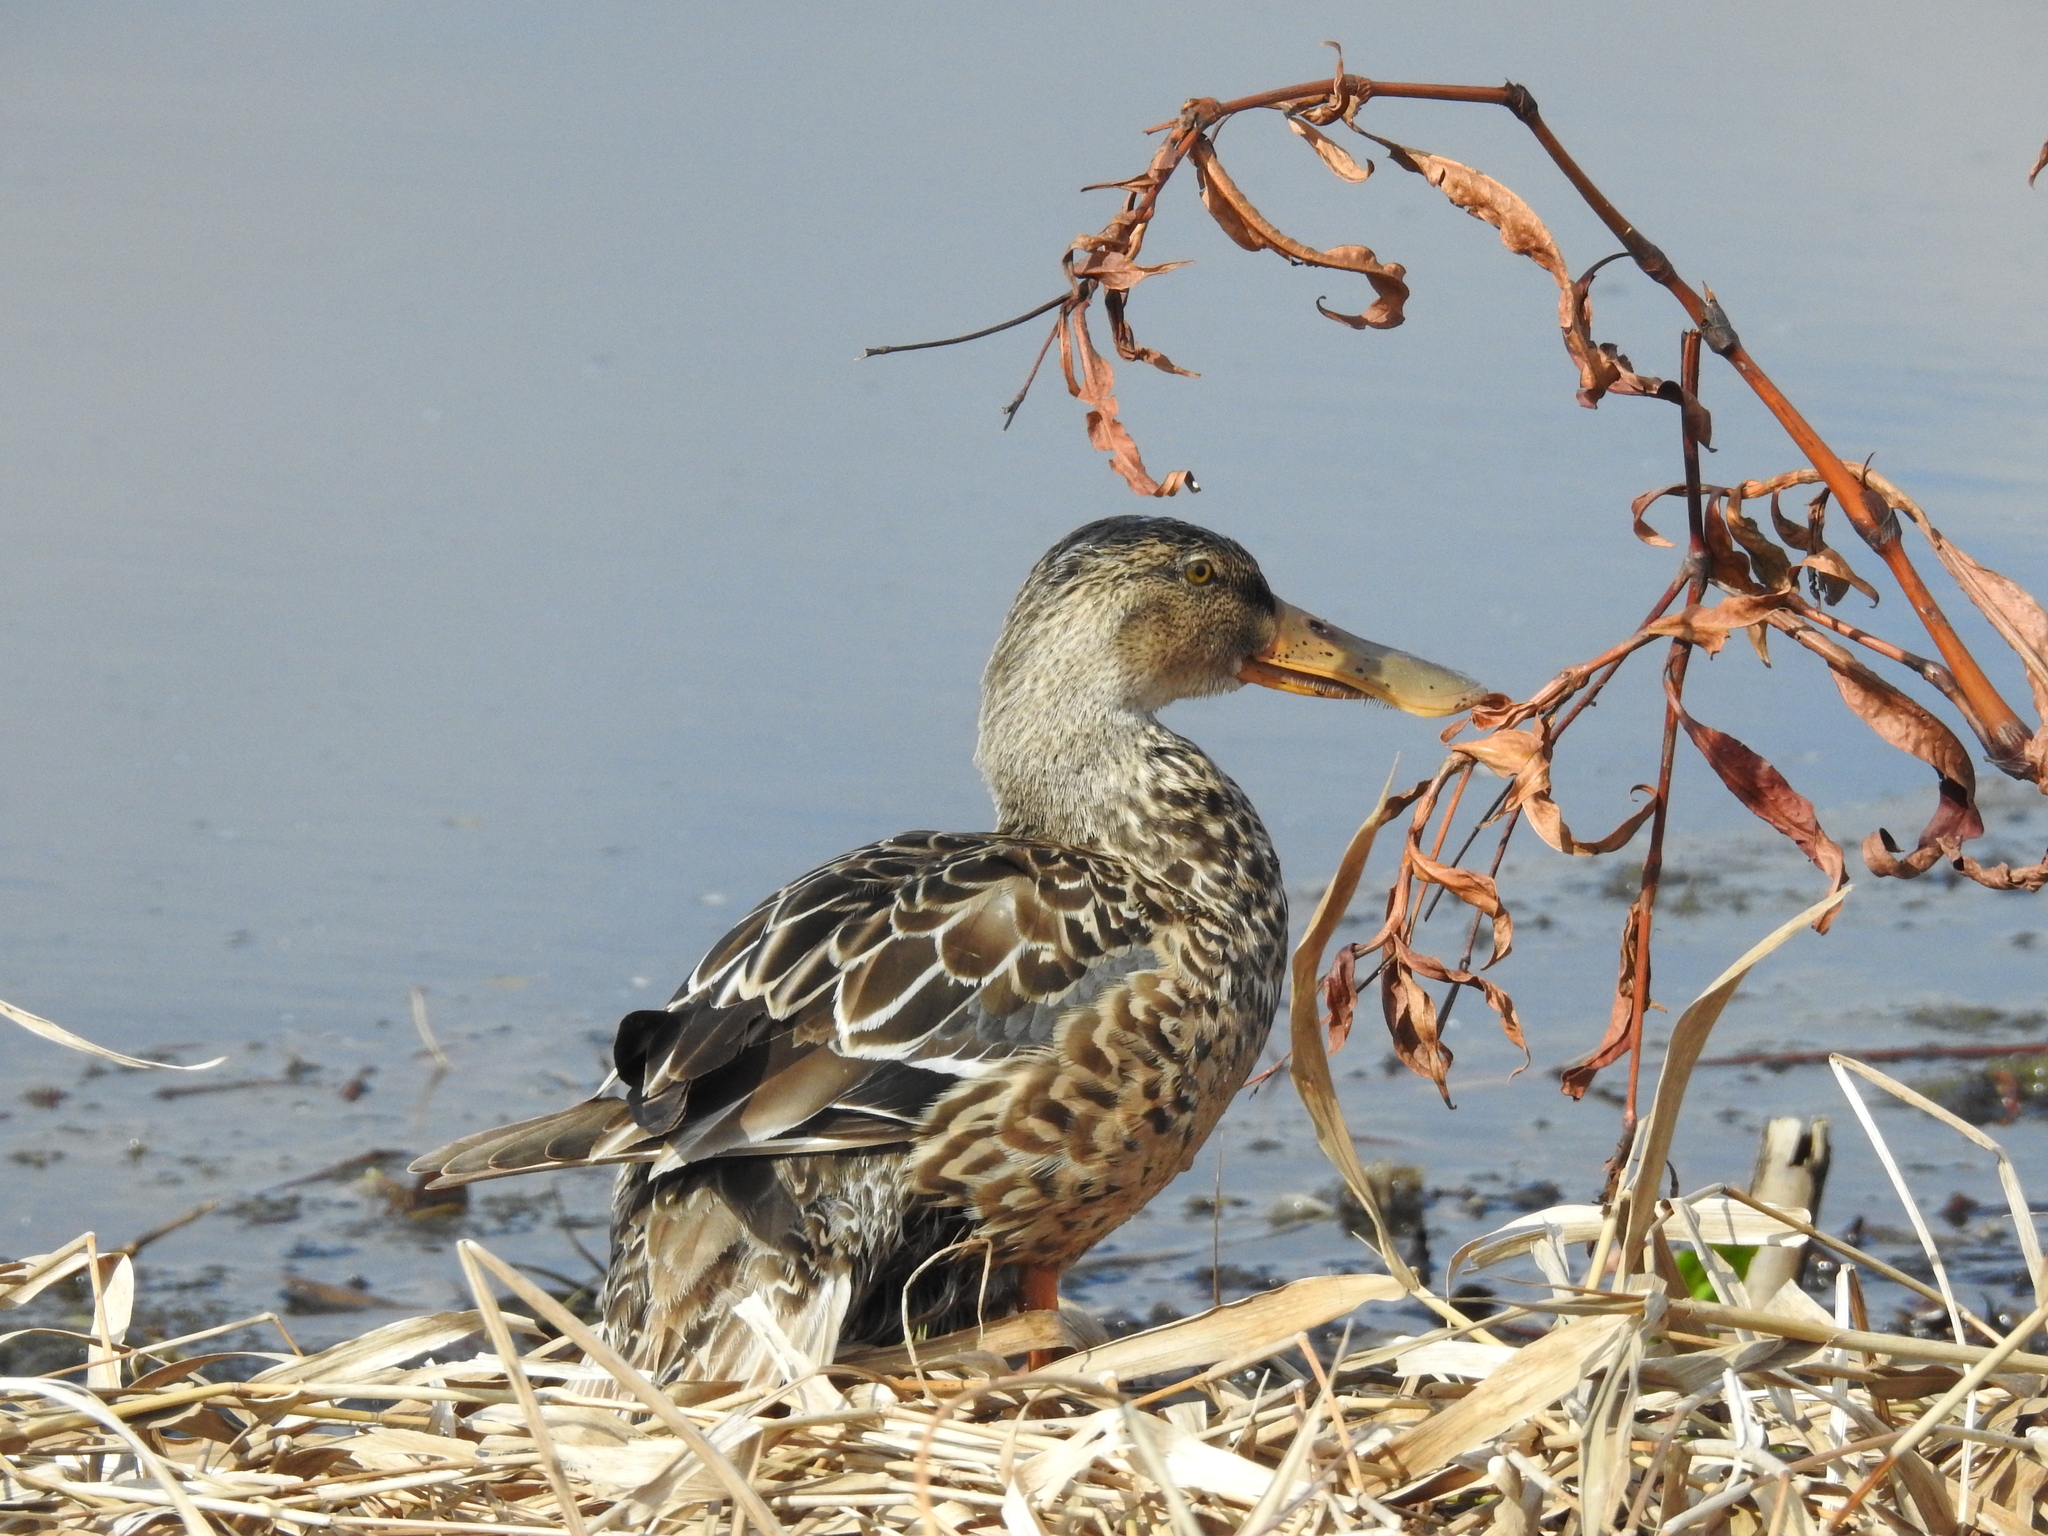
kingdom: Animalia
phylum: Chordata
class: Aves
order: Anseriformes
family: Anatidae
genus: Spatula
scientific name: Spatula clypeata
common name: Northern shoveler
